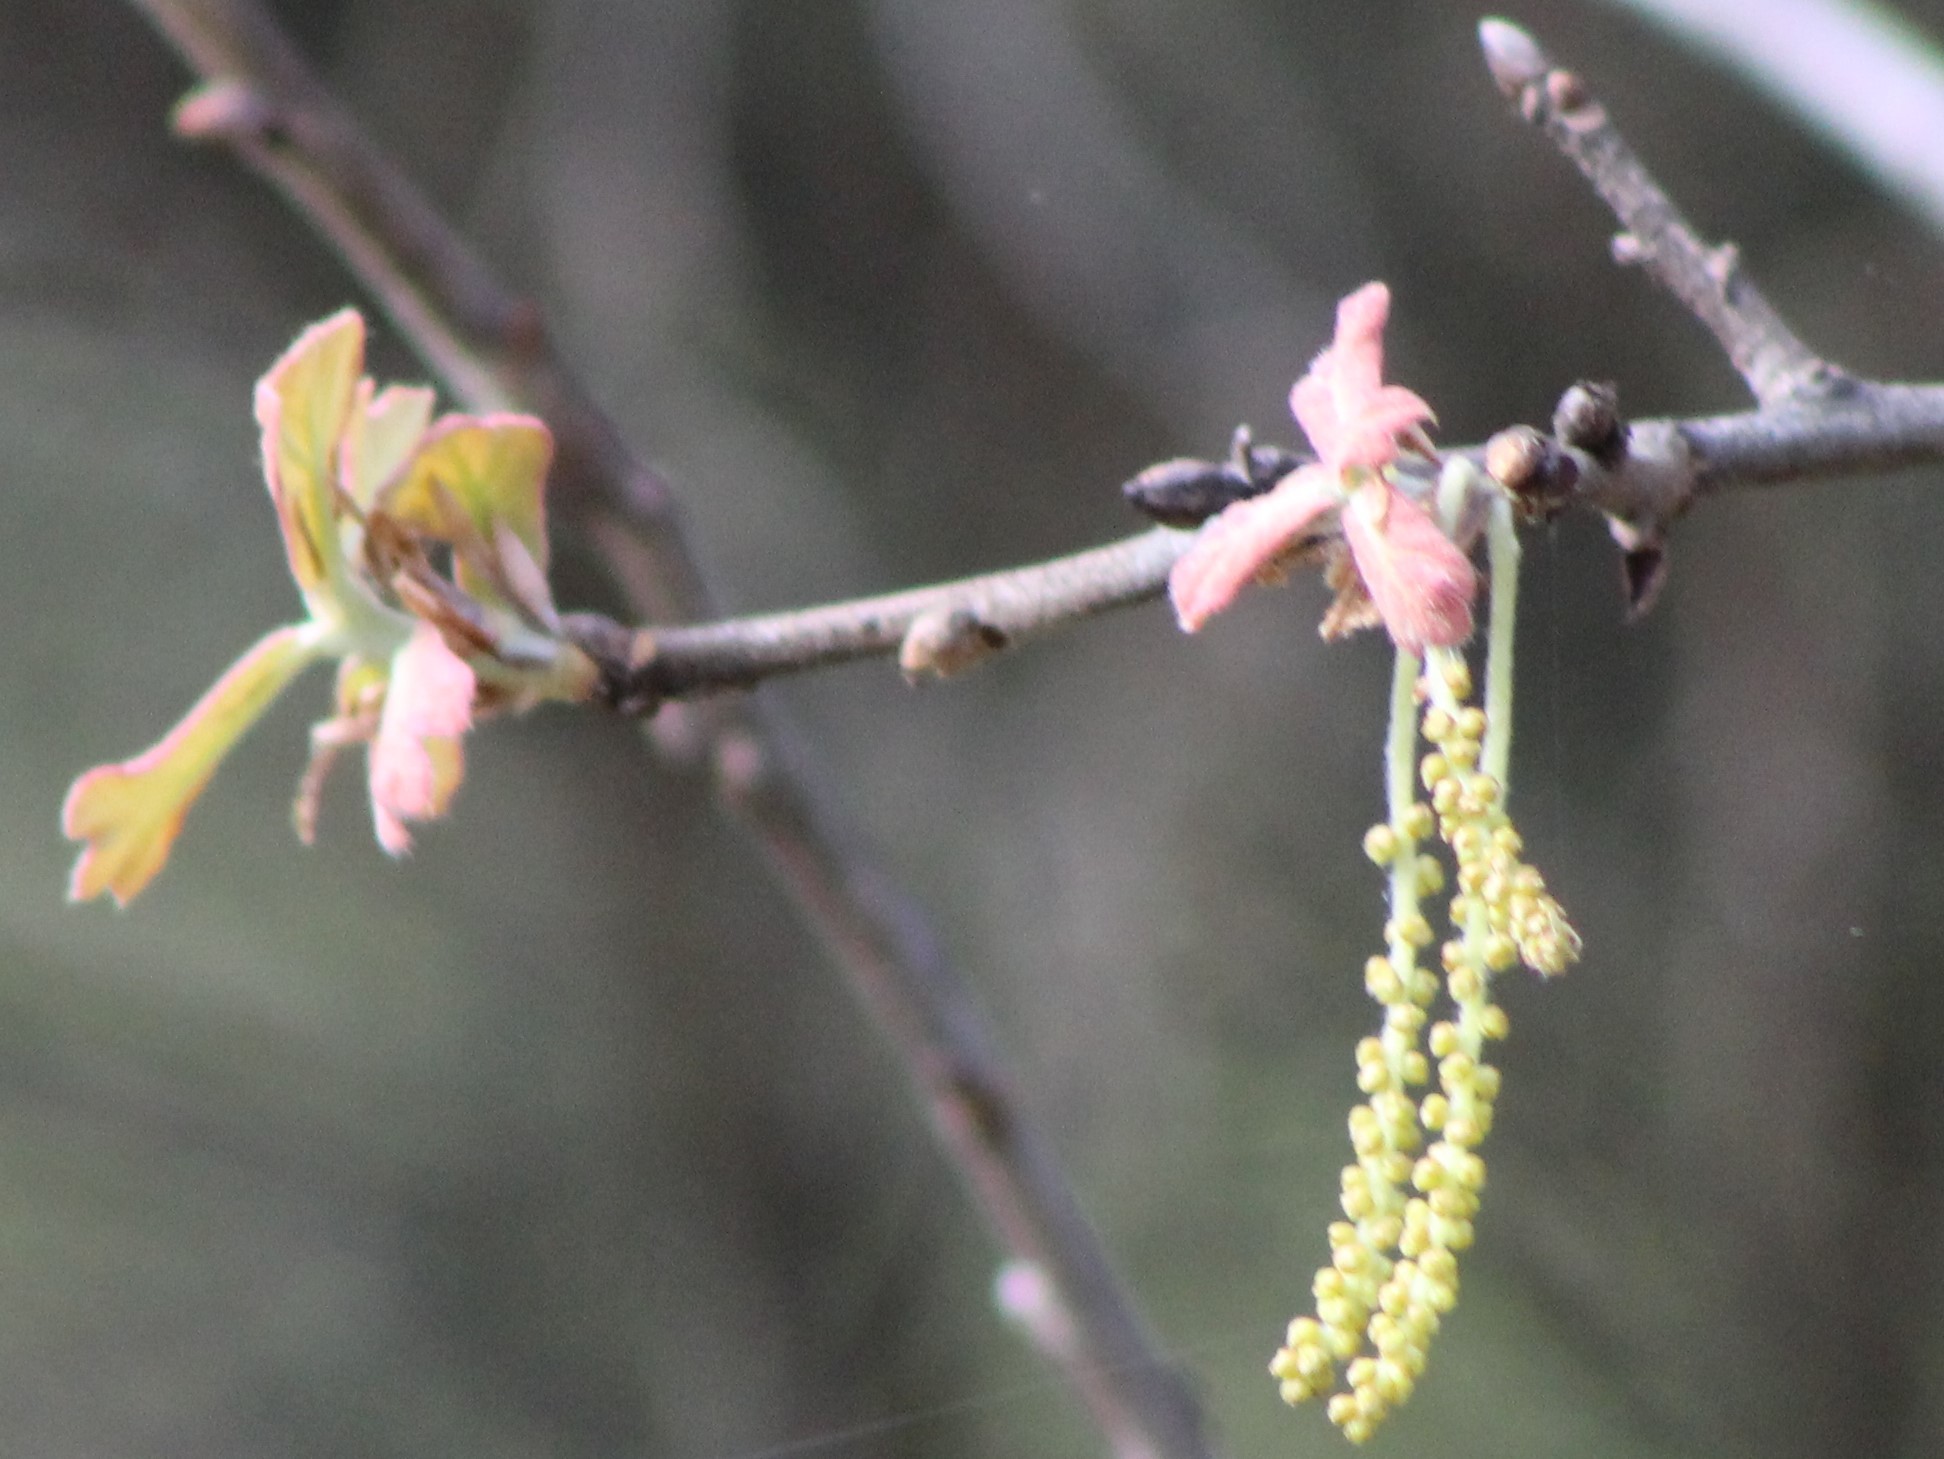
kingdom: Plantae
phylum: Tracheophyta
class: Magnoliopsida
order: Fagales
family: Fagaceae
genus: Quercus
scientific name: Quercus marilandica
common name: Blackjack oak
